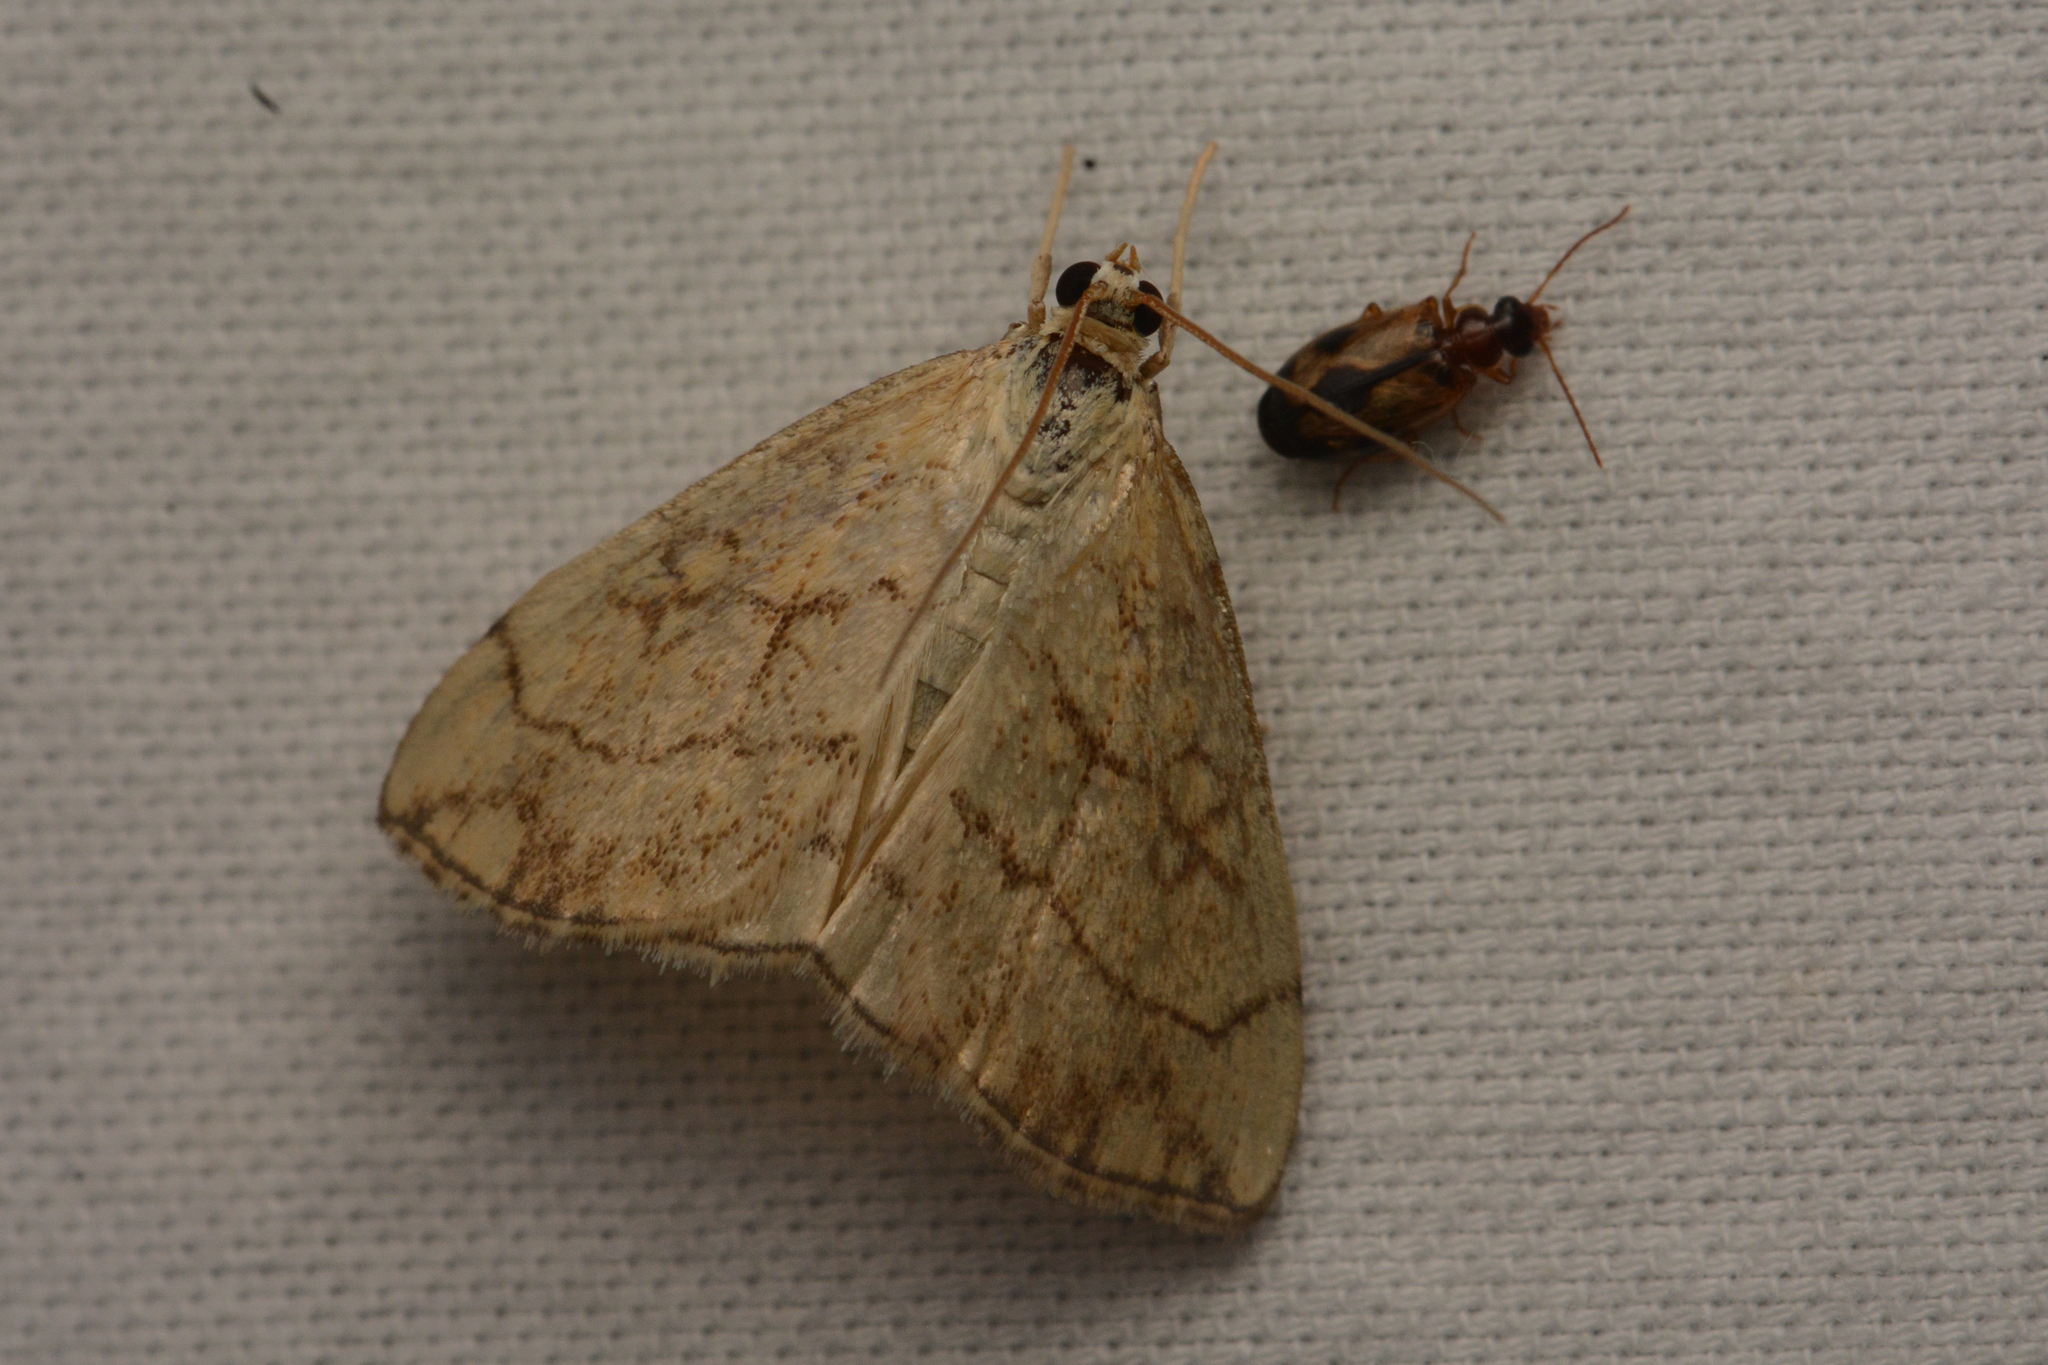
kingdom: Animalia
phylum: Arthropoda
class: Insecta
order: Lepidoptera
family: Crambidae
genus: Evergestis
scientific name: Evergestis pallidata
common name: Chequered pearl
